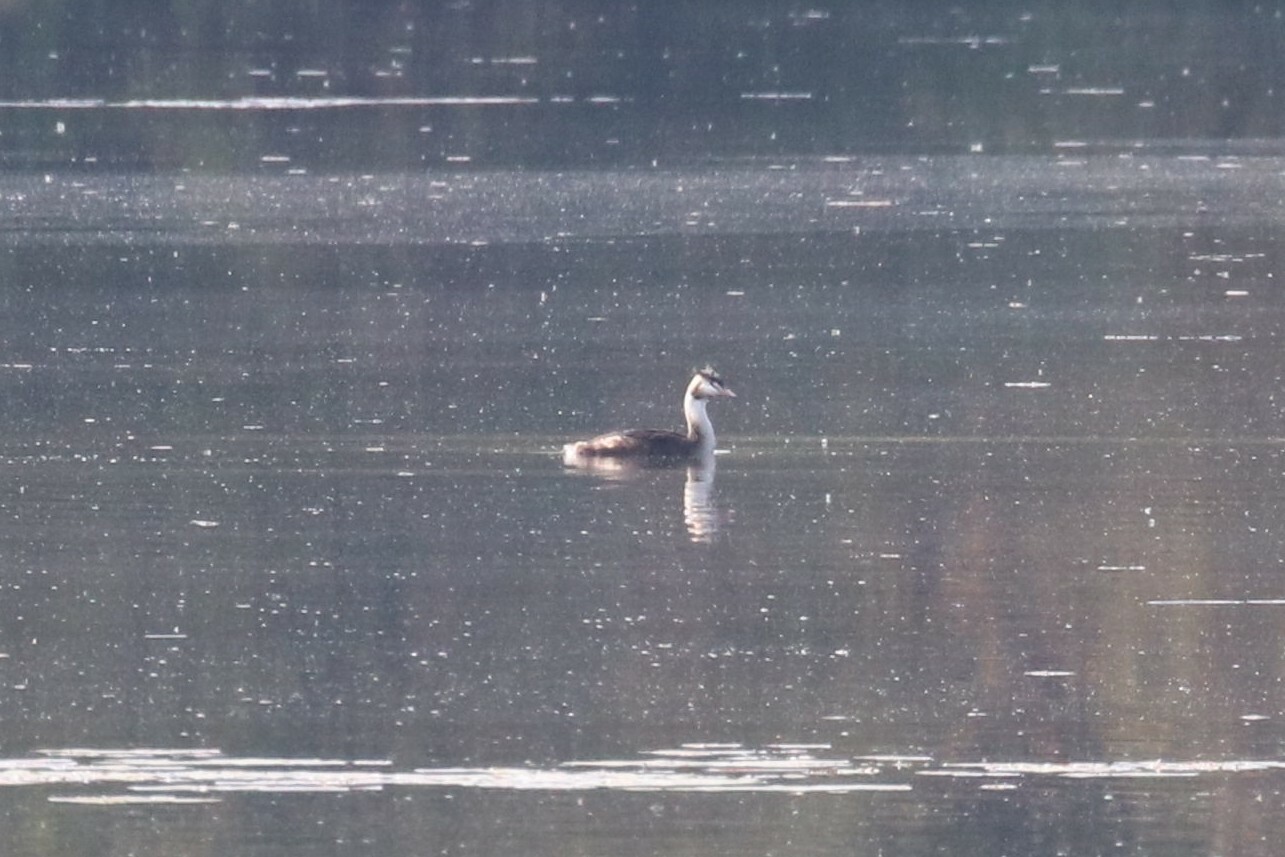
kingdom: Animalia
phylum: Chordata
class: Aves
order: Podicipediformes
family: Podicipedidae
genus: Podiceps
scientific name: Podiceps cristatus
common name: Great crested grebe
